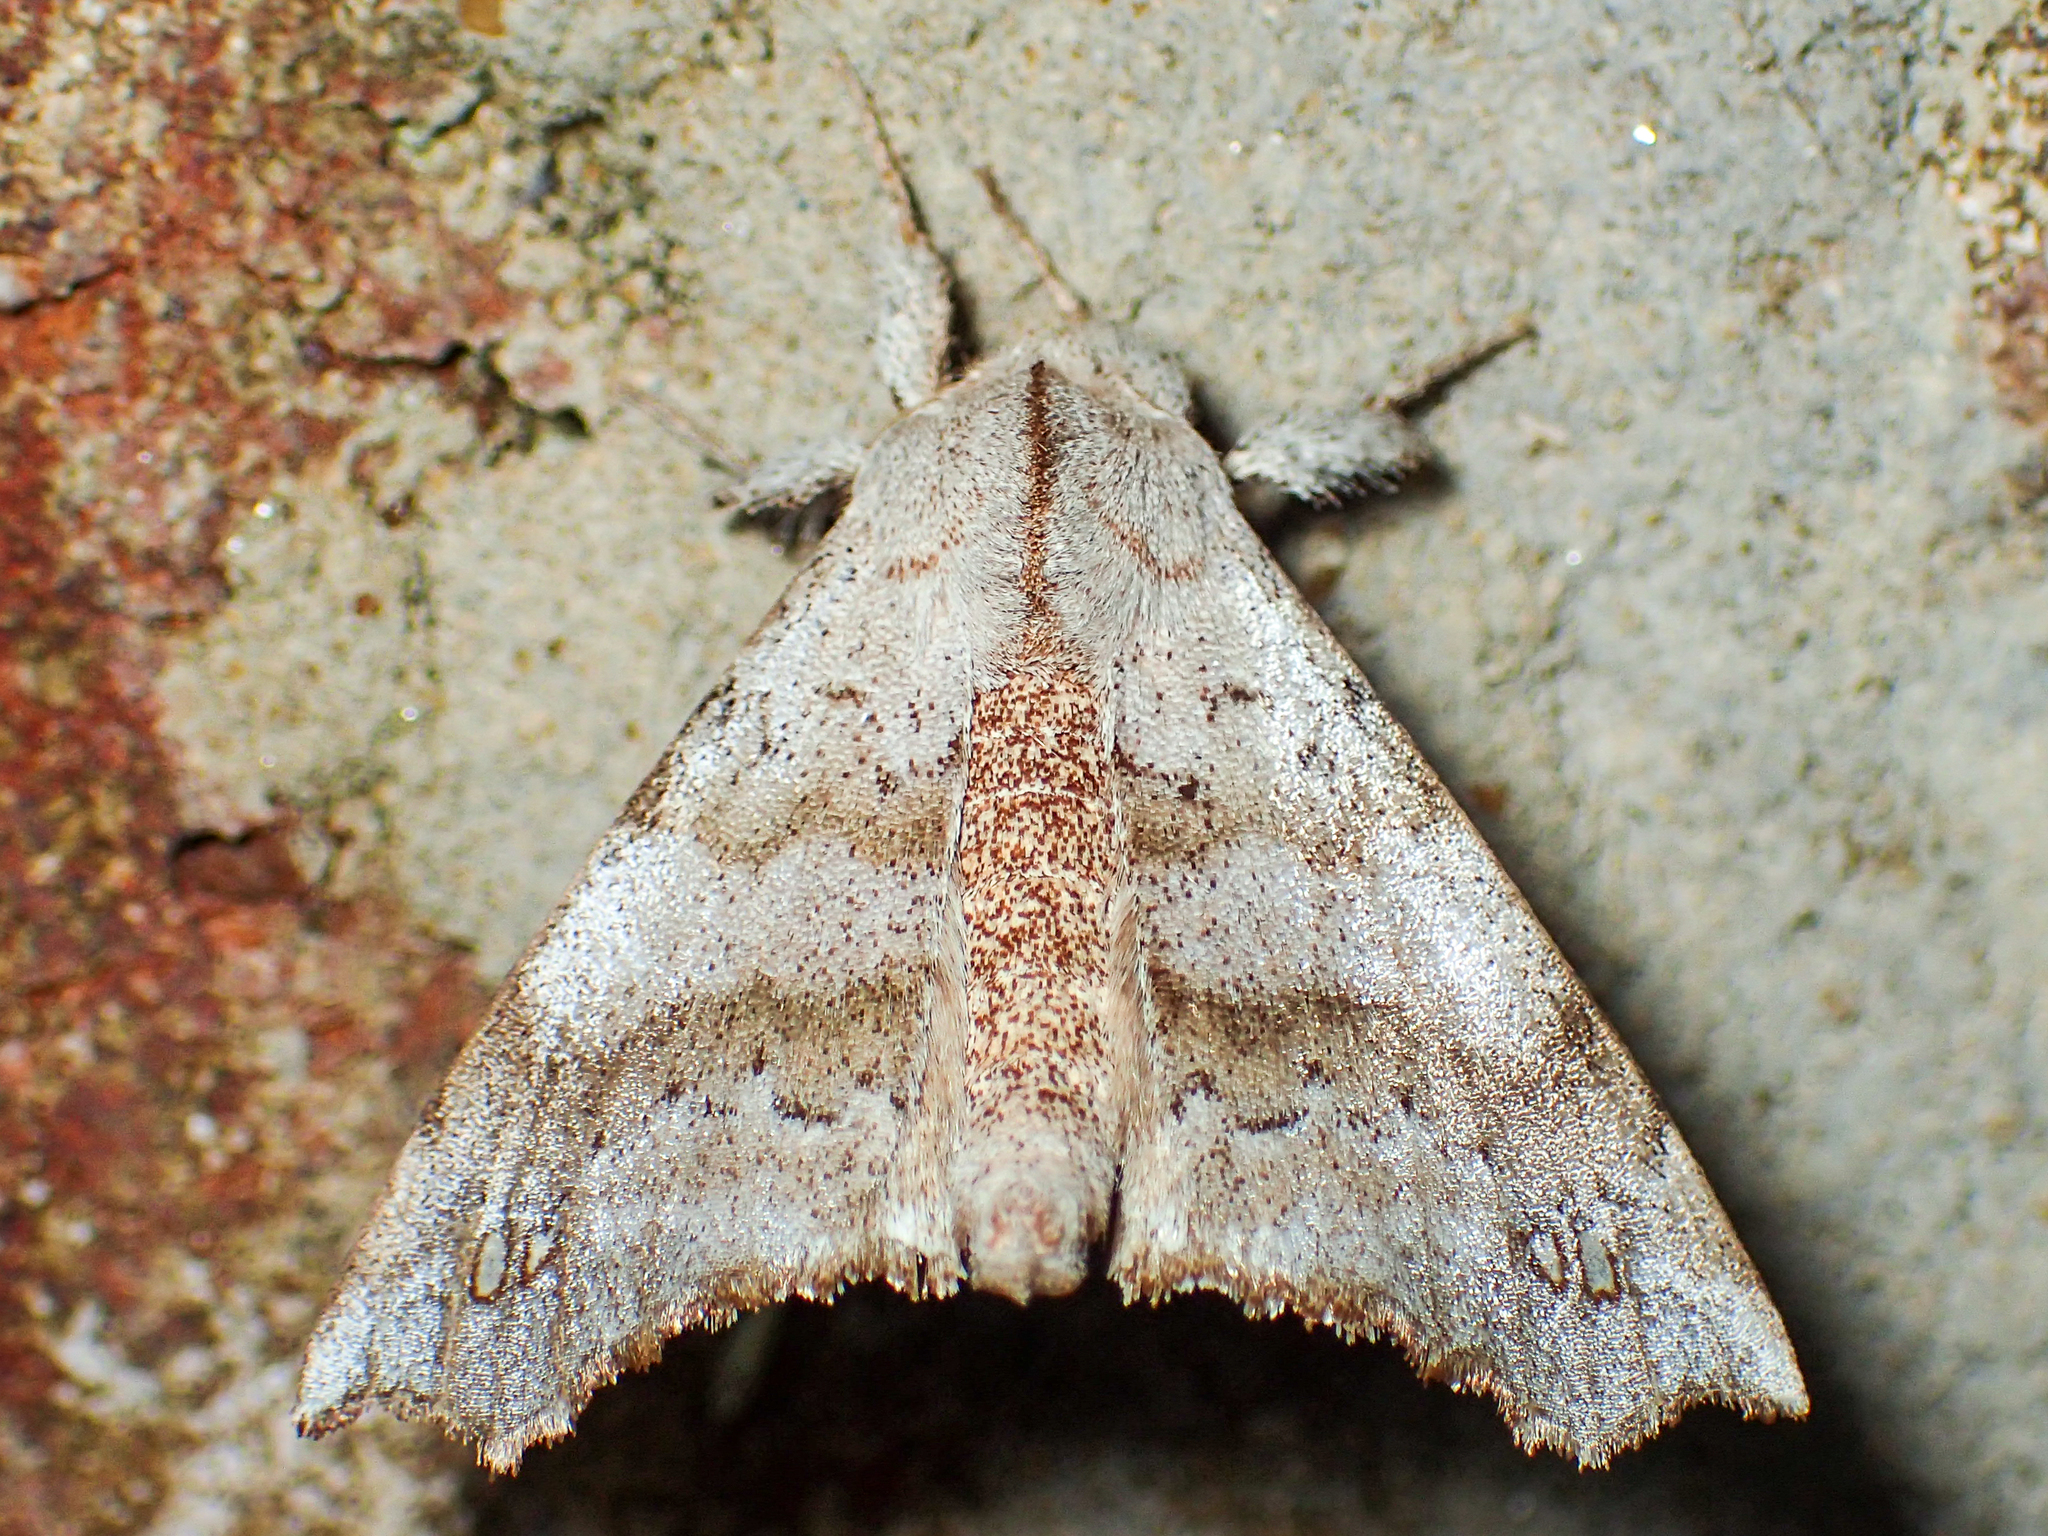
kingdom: Animalia
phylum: Arthropoda
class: Insecta
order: Lepidoptera
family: Apatelodidae
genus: Olceclostera
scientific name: Olceclostera angelica
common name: Angel moth
